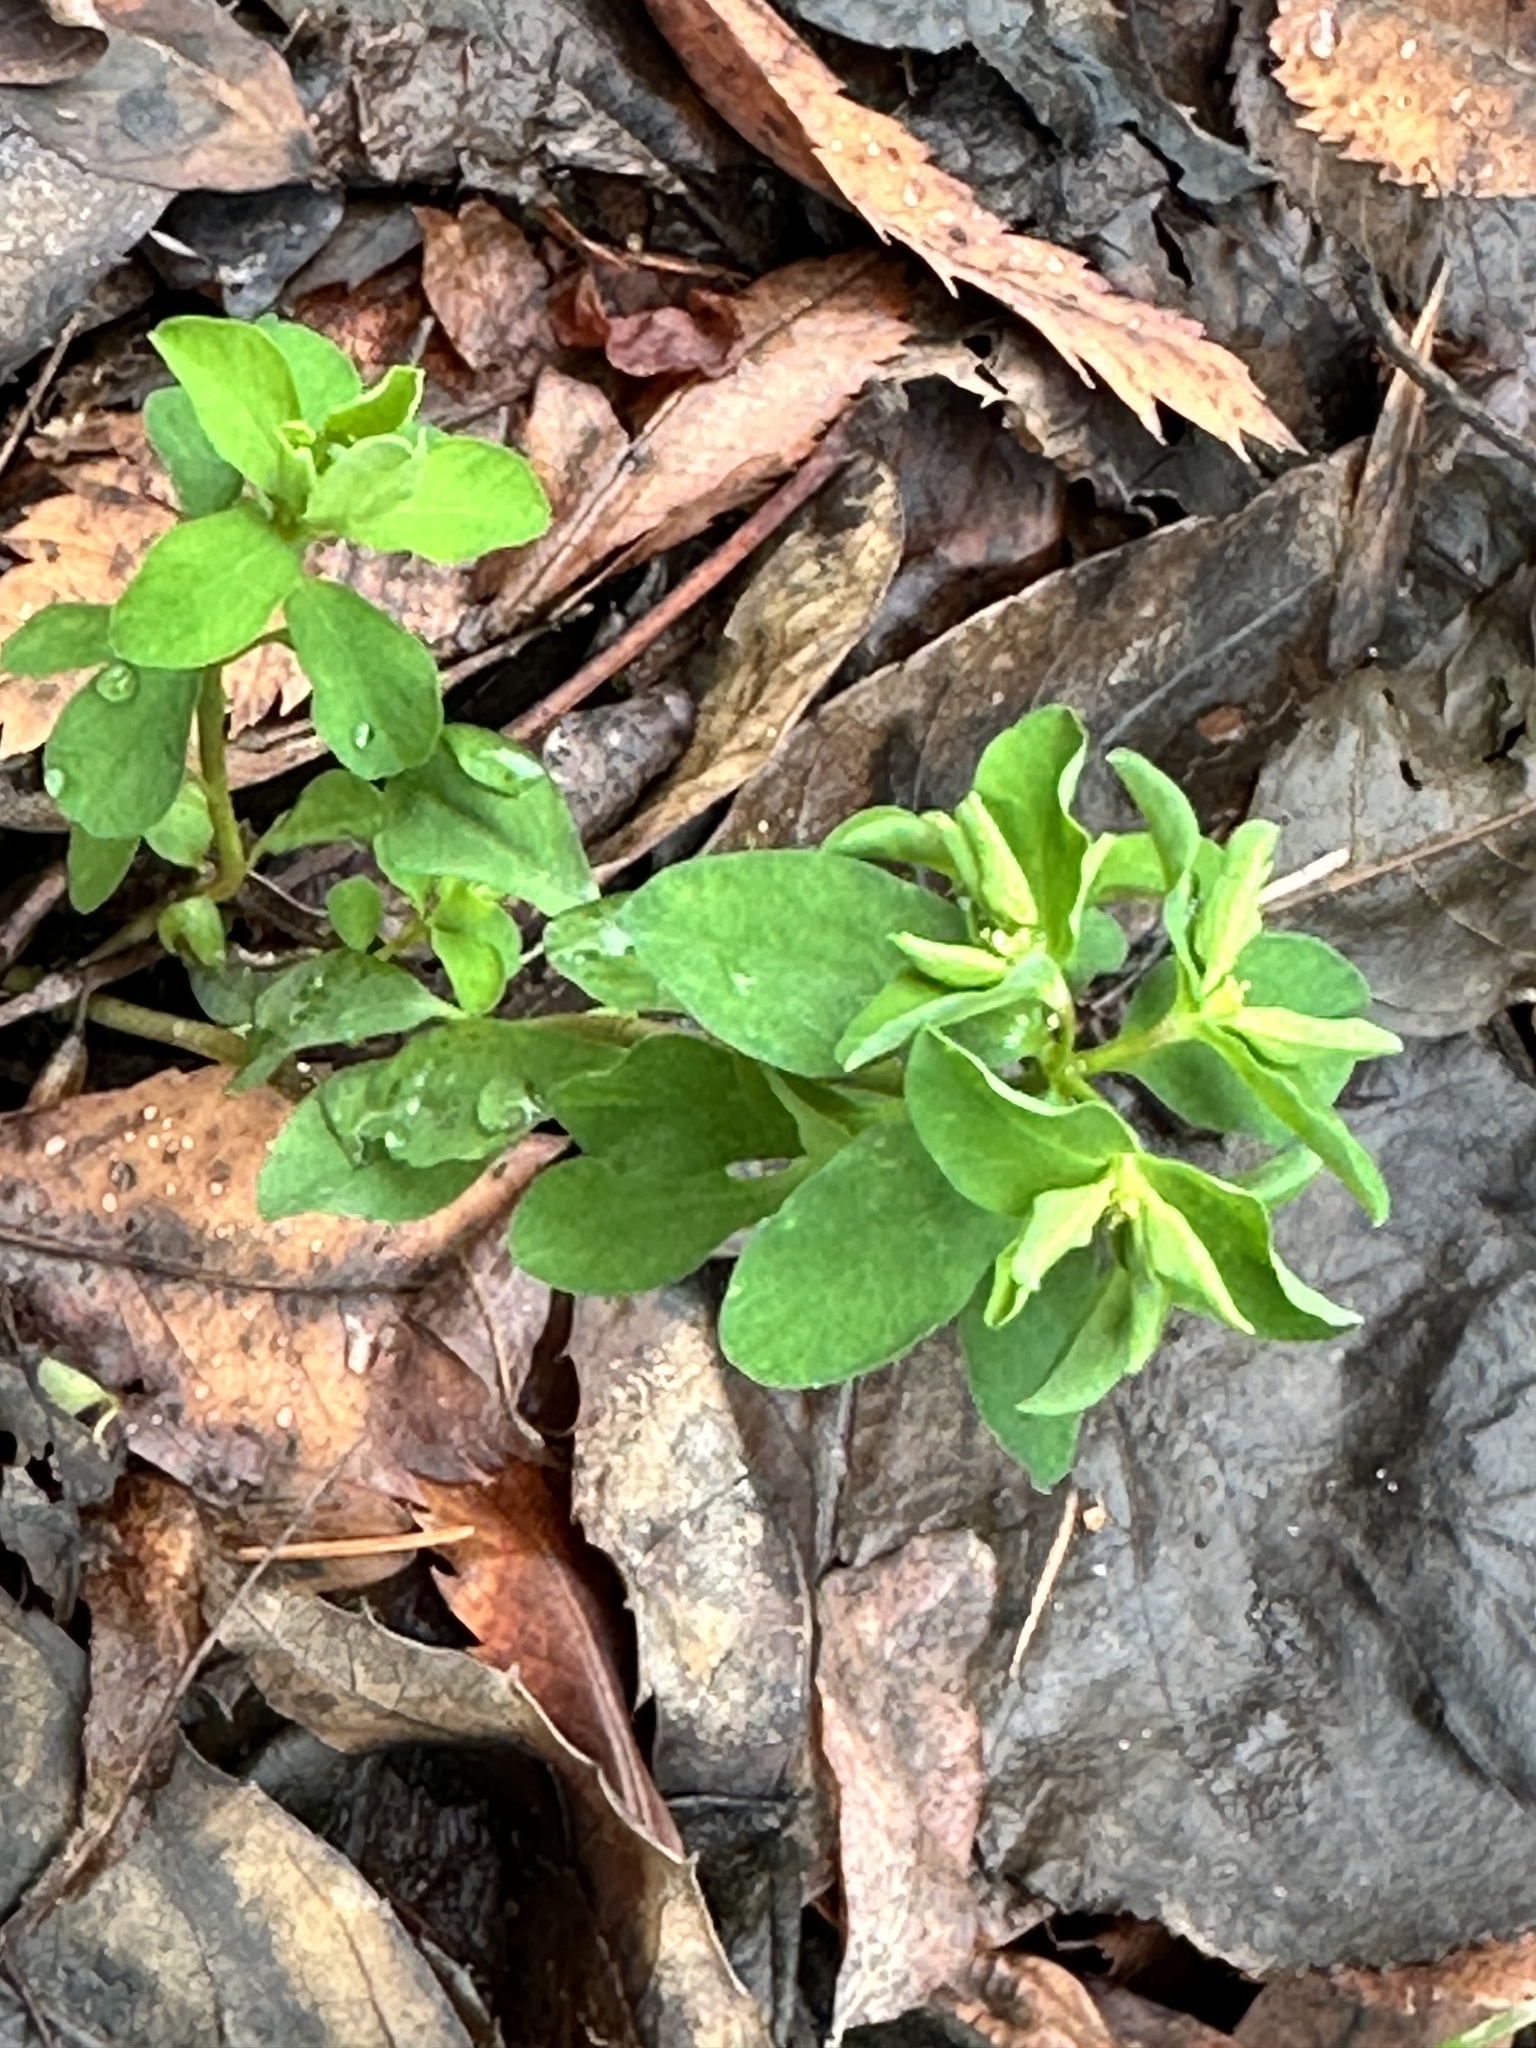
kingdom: Plantae
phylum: Tracheophyta
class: Magnoliopsida
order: Malpighiales
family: Euphorbiaceae
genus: Euphorbia
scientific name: Euphorbia peplus
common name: Petty spurge
